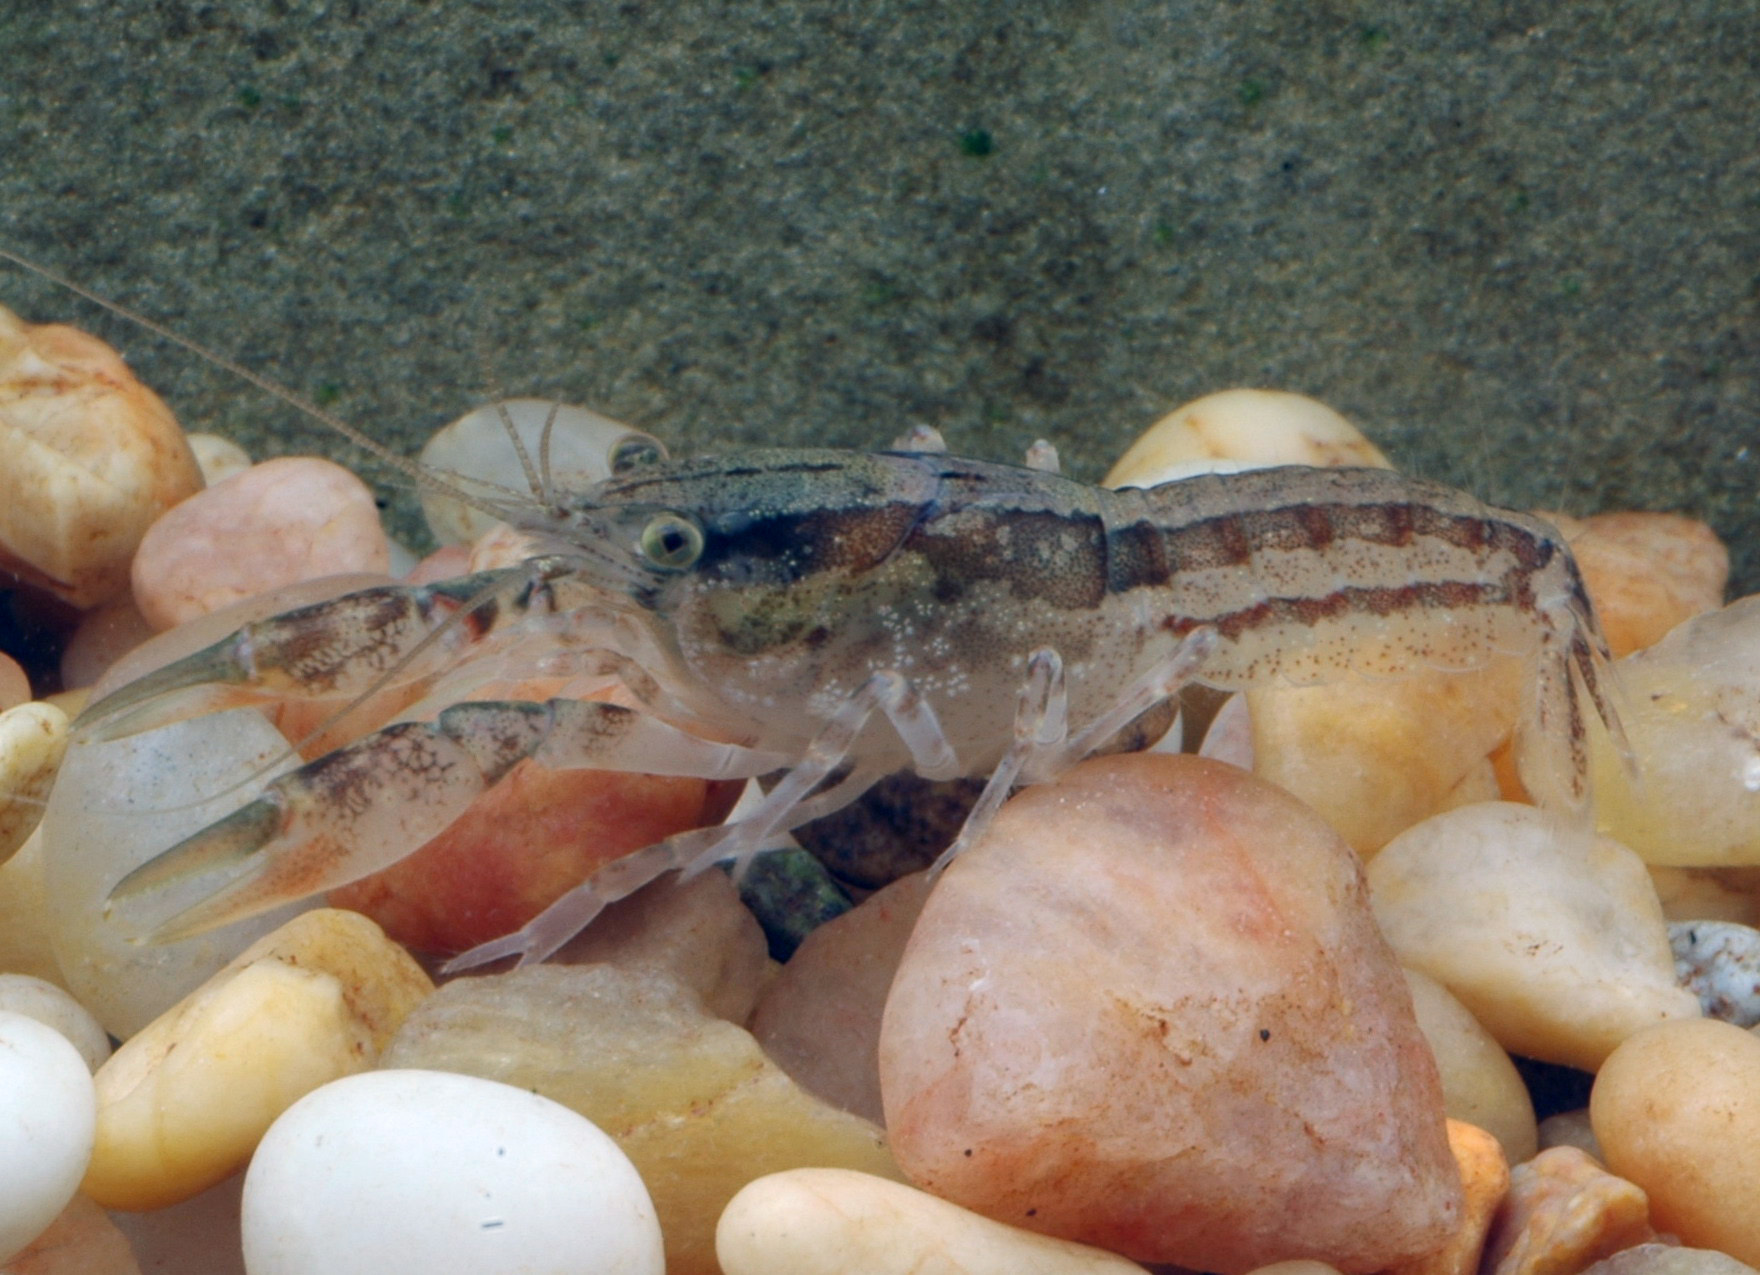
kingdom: Animalia
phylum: Arthropoda
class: Malacostraca
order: Decapoda
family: Cambaridae
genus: Cambarellus
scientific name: Cambarellus puer
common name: Swamp dwarf crayfish
